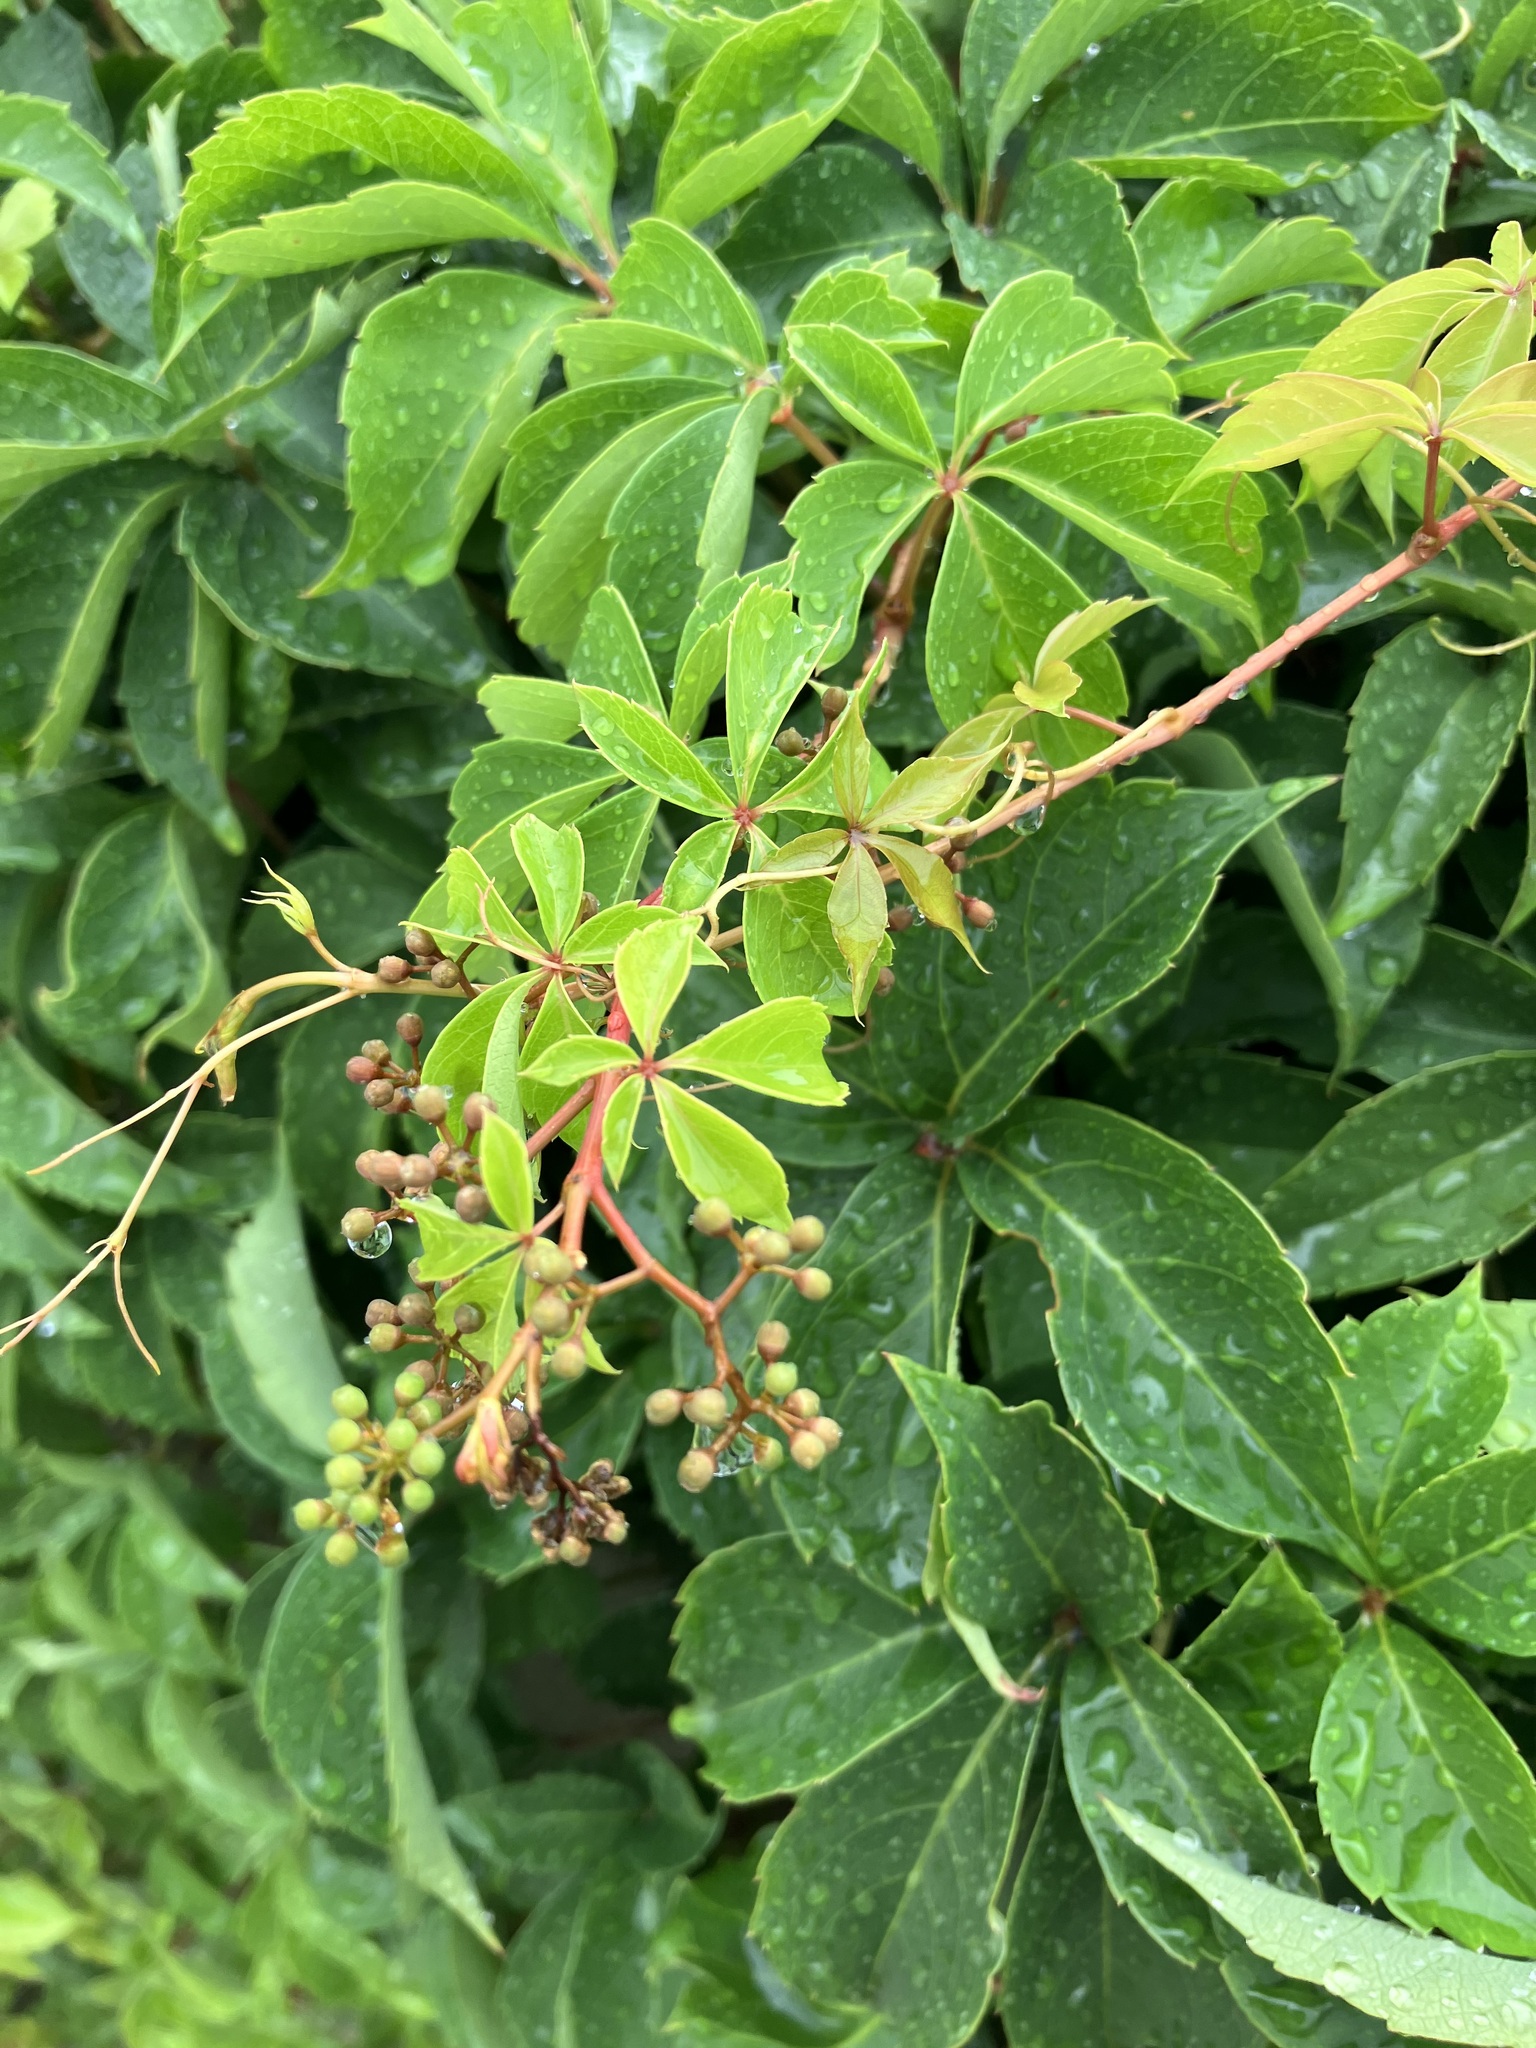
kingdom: Plantae
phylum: Tracheophyta
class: Magnoliopsida
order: Vitales
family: Vitaceae
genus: Parthenocissus
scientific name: Parthenocissus quinquefolia
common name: Virginia-creeper
